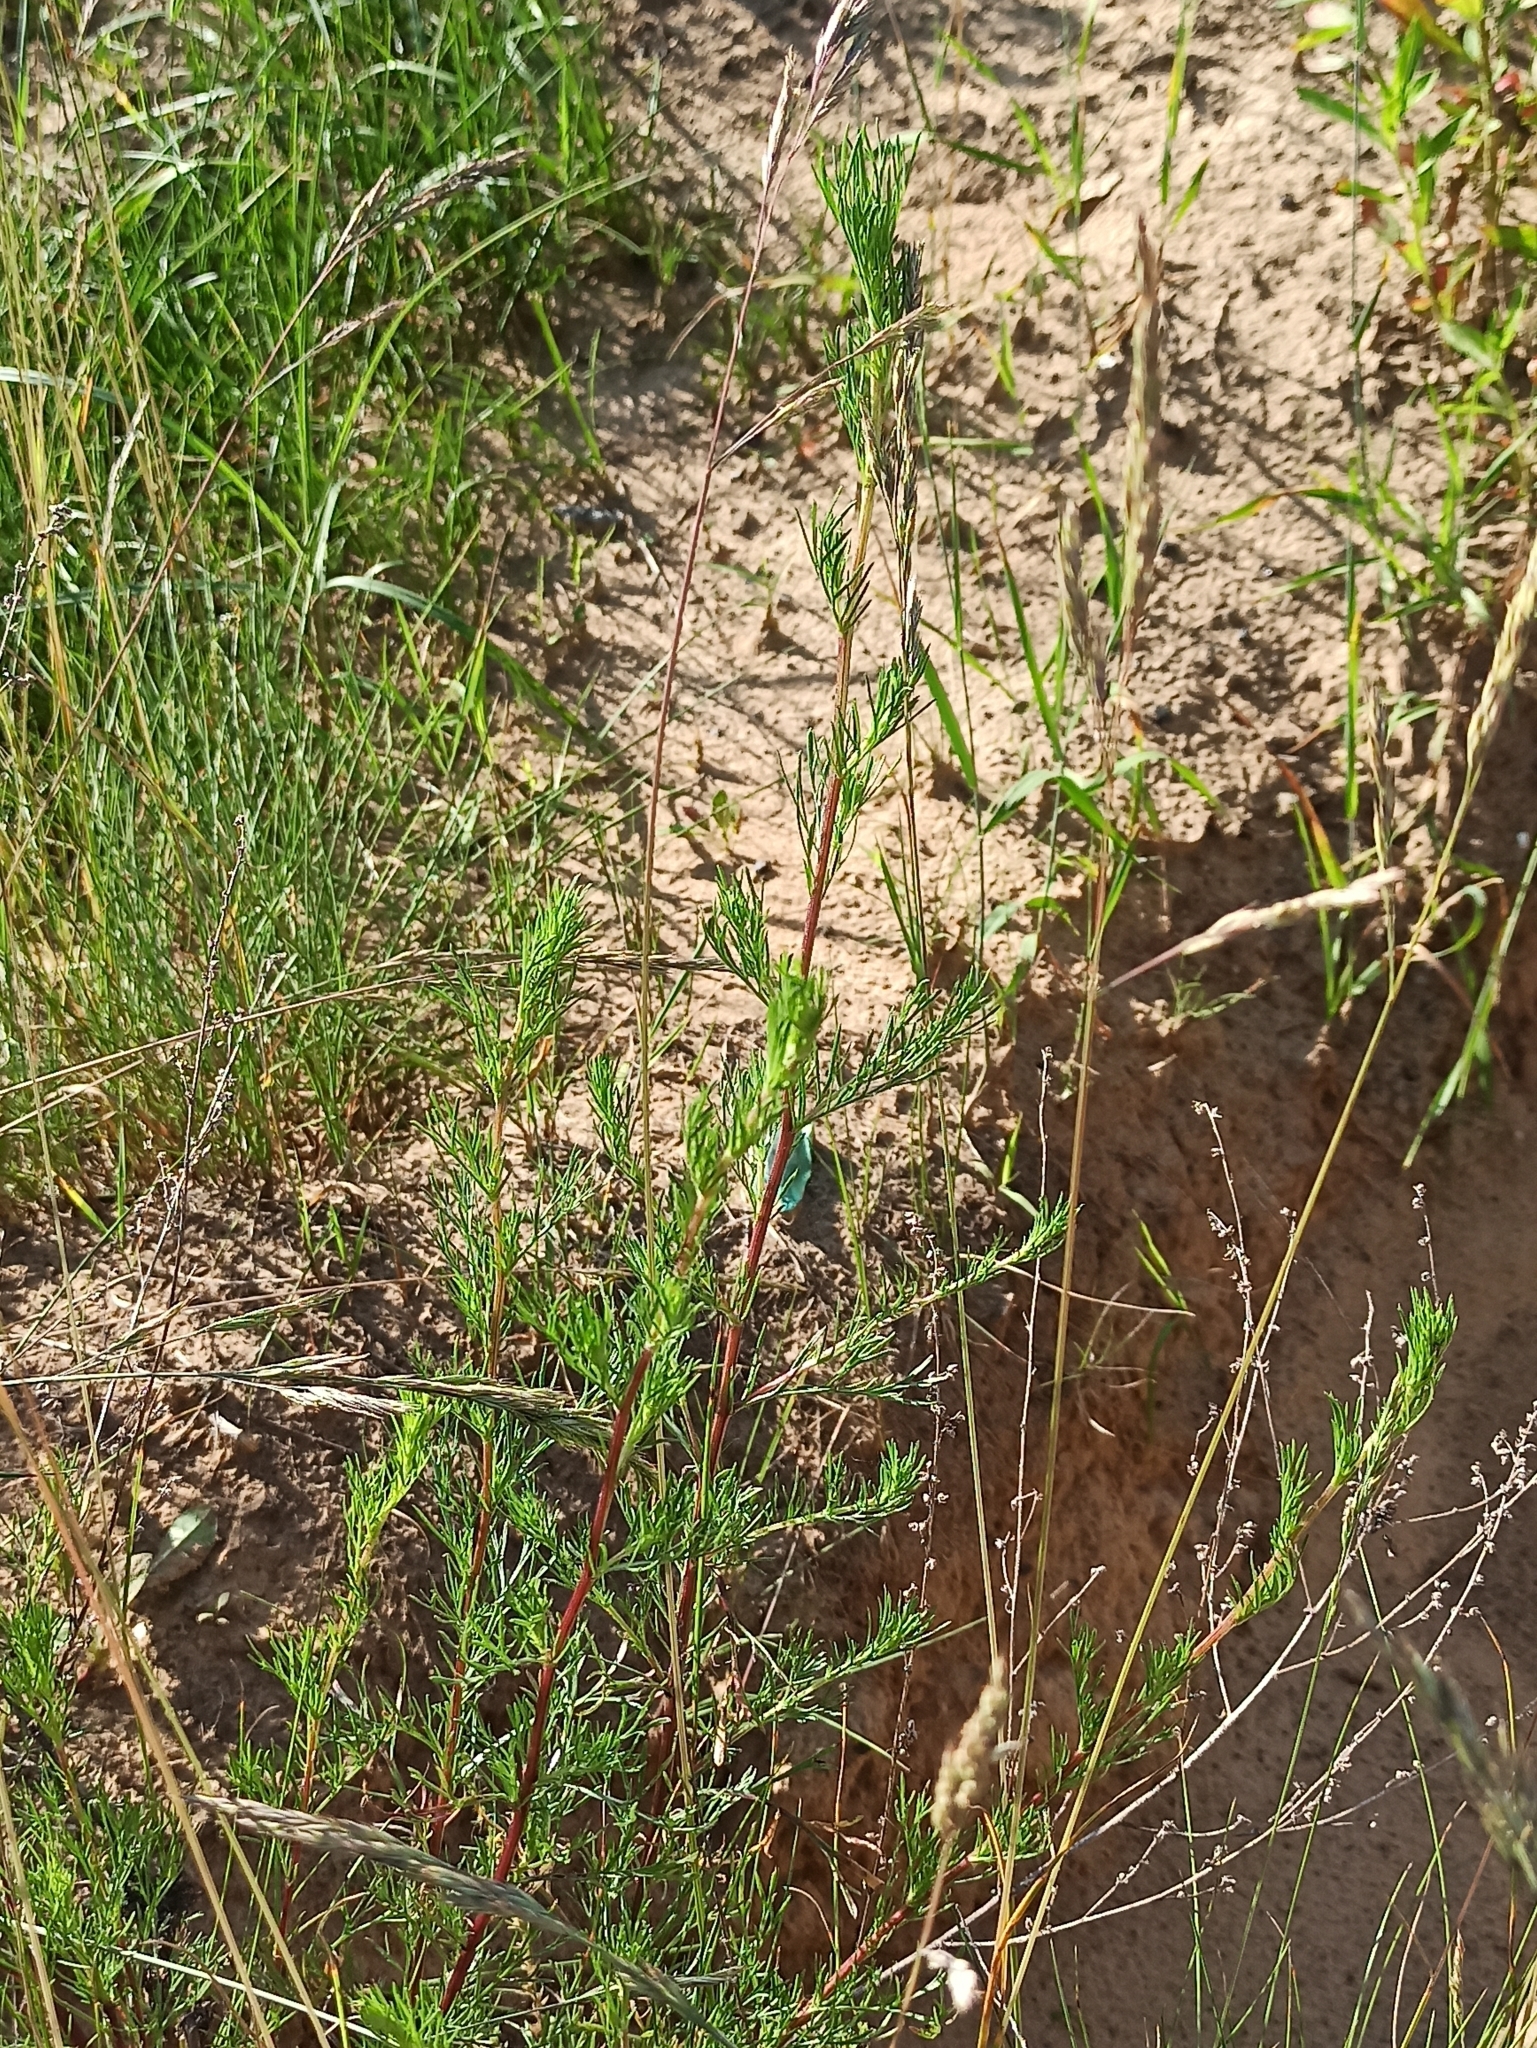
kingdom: Plantae
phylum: Tracheophyta
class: Magnoliopsida
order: Asterales
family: Asteraceae
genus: Artemisia
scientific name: Artemisia campestris
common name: Field wormwood
